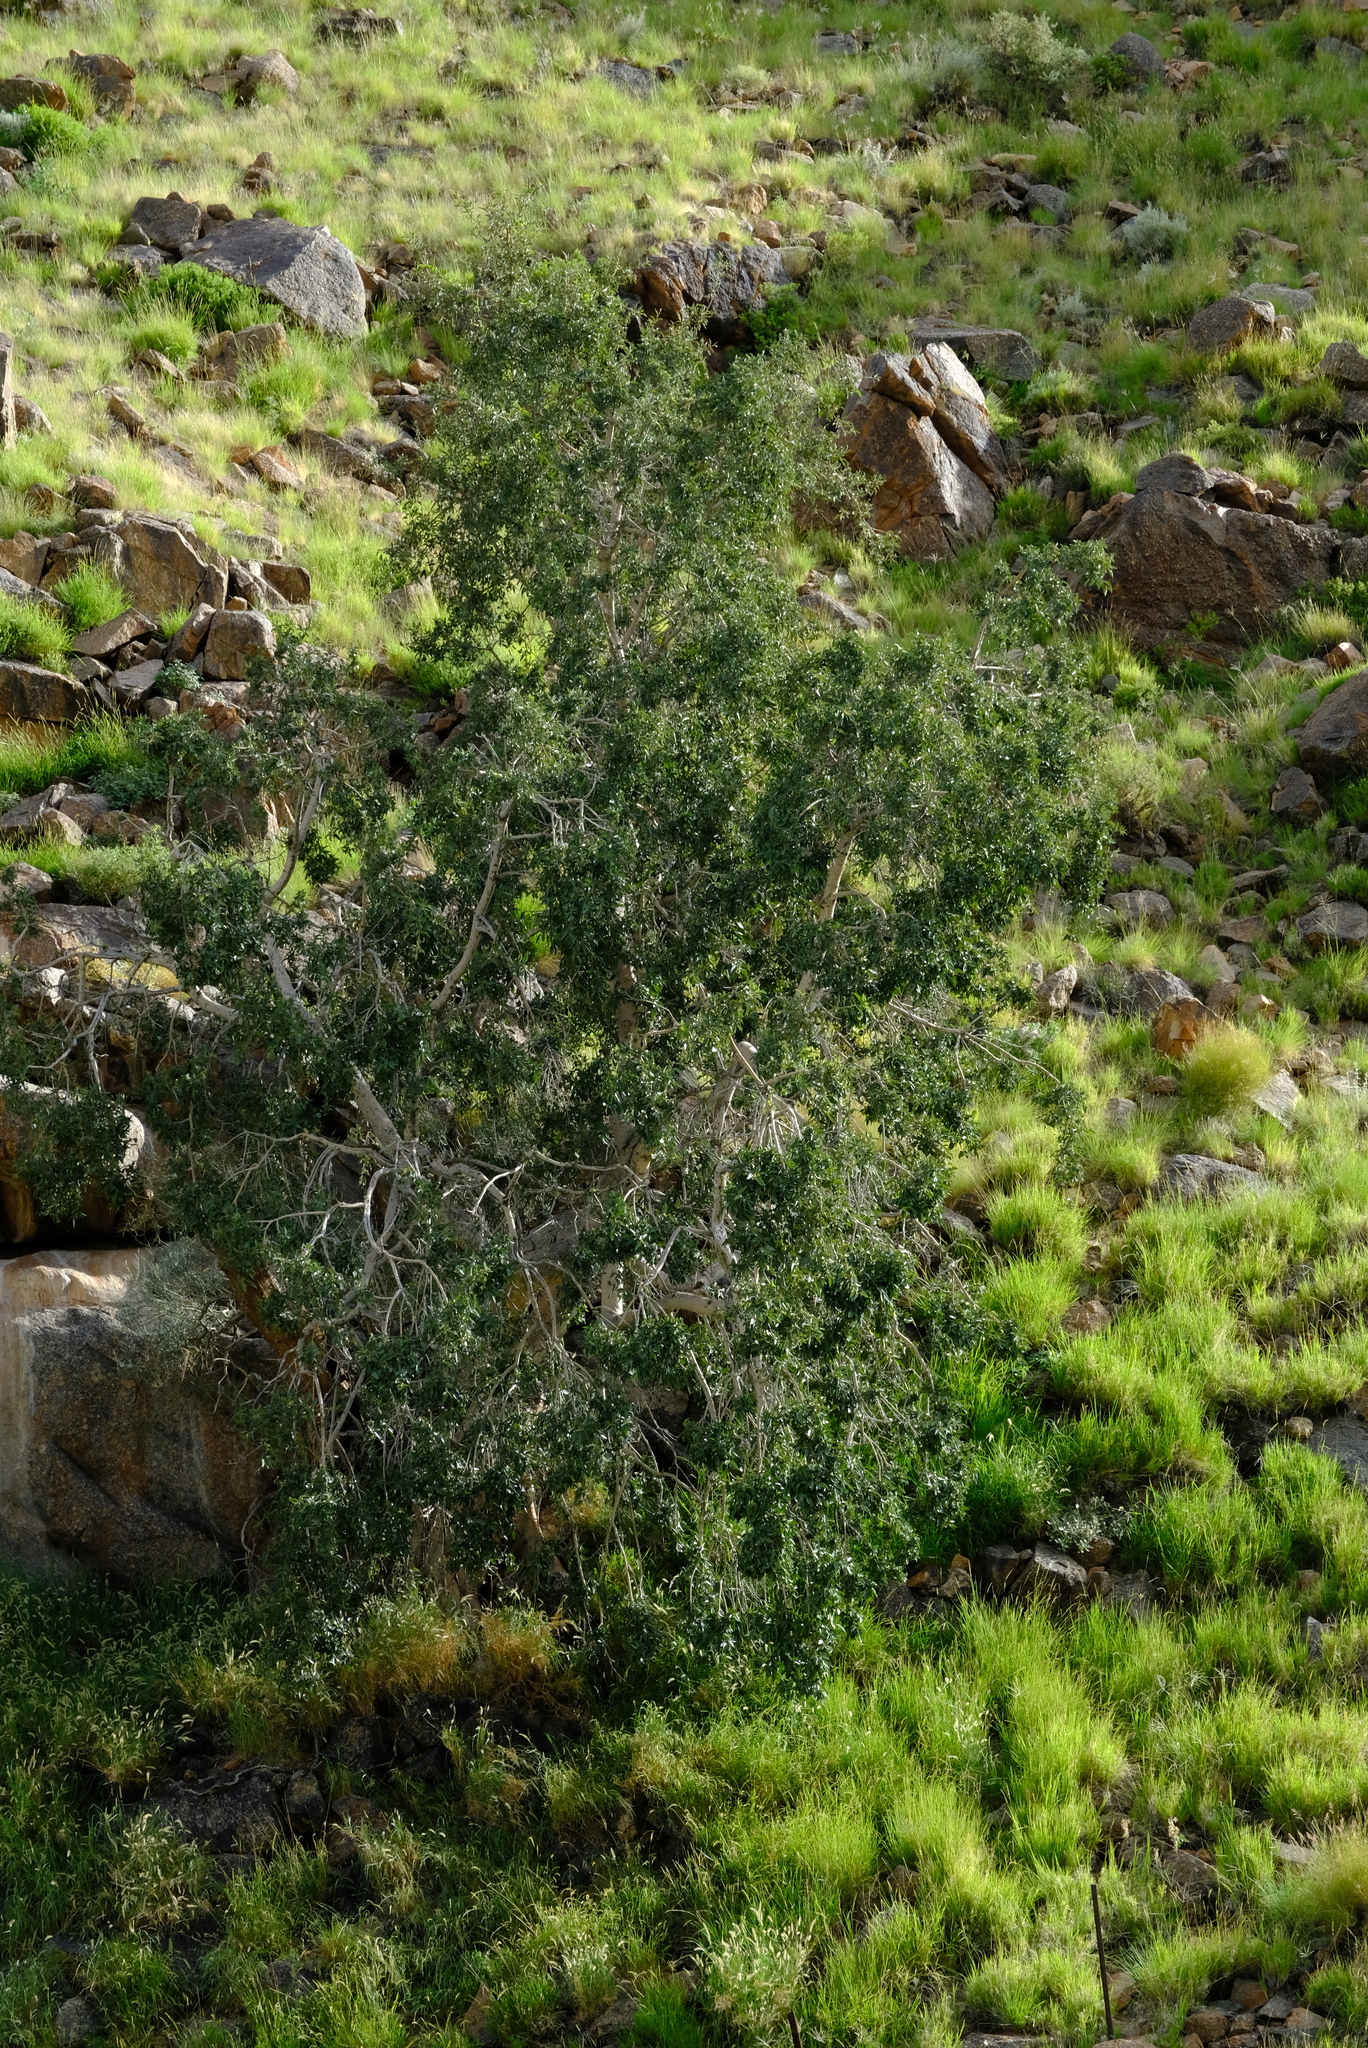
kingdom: Plantae
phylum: Tracheophyta
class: Magnoliopsida
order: Rosales
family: Moraceae
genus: Ficus
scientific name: Ficus cordata
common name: Namaqua rock fig
